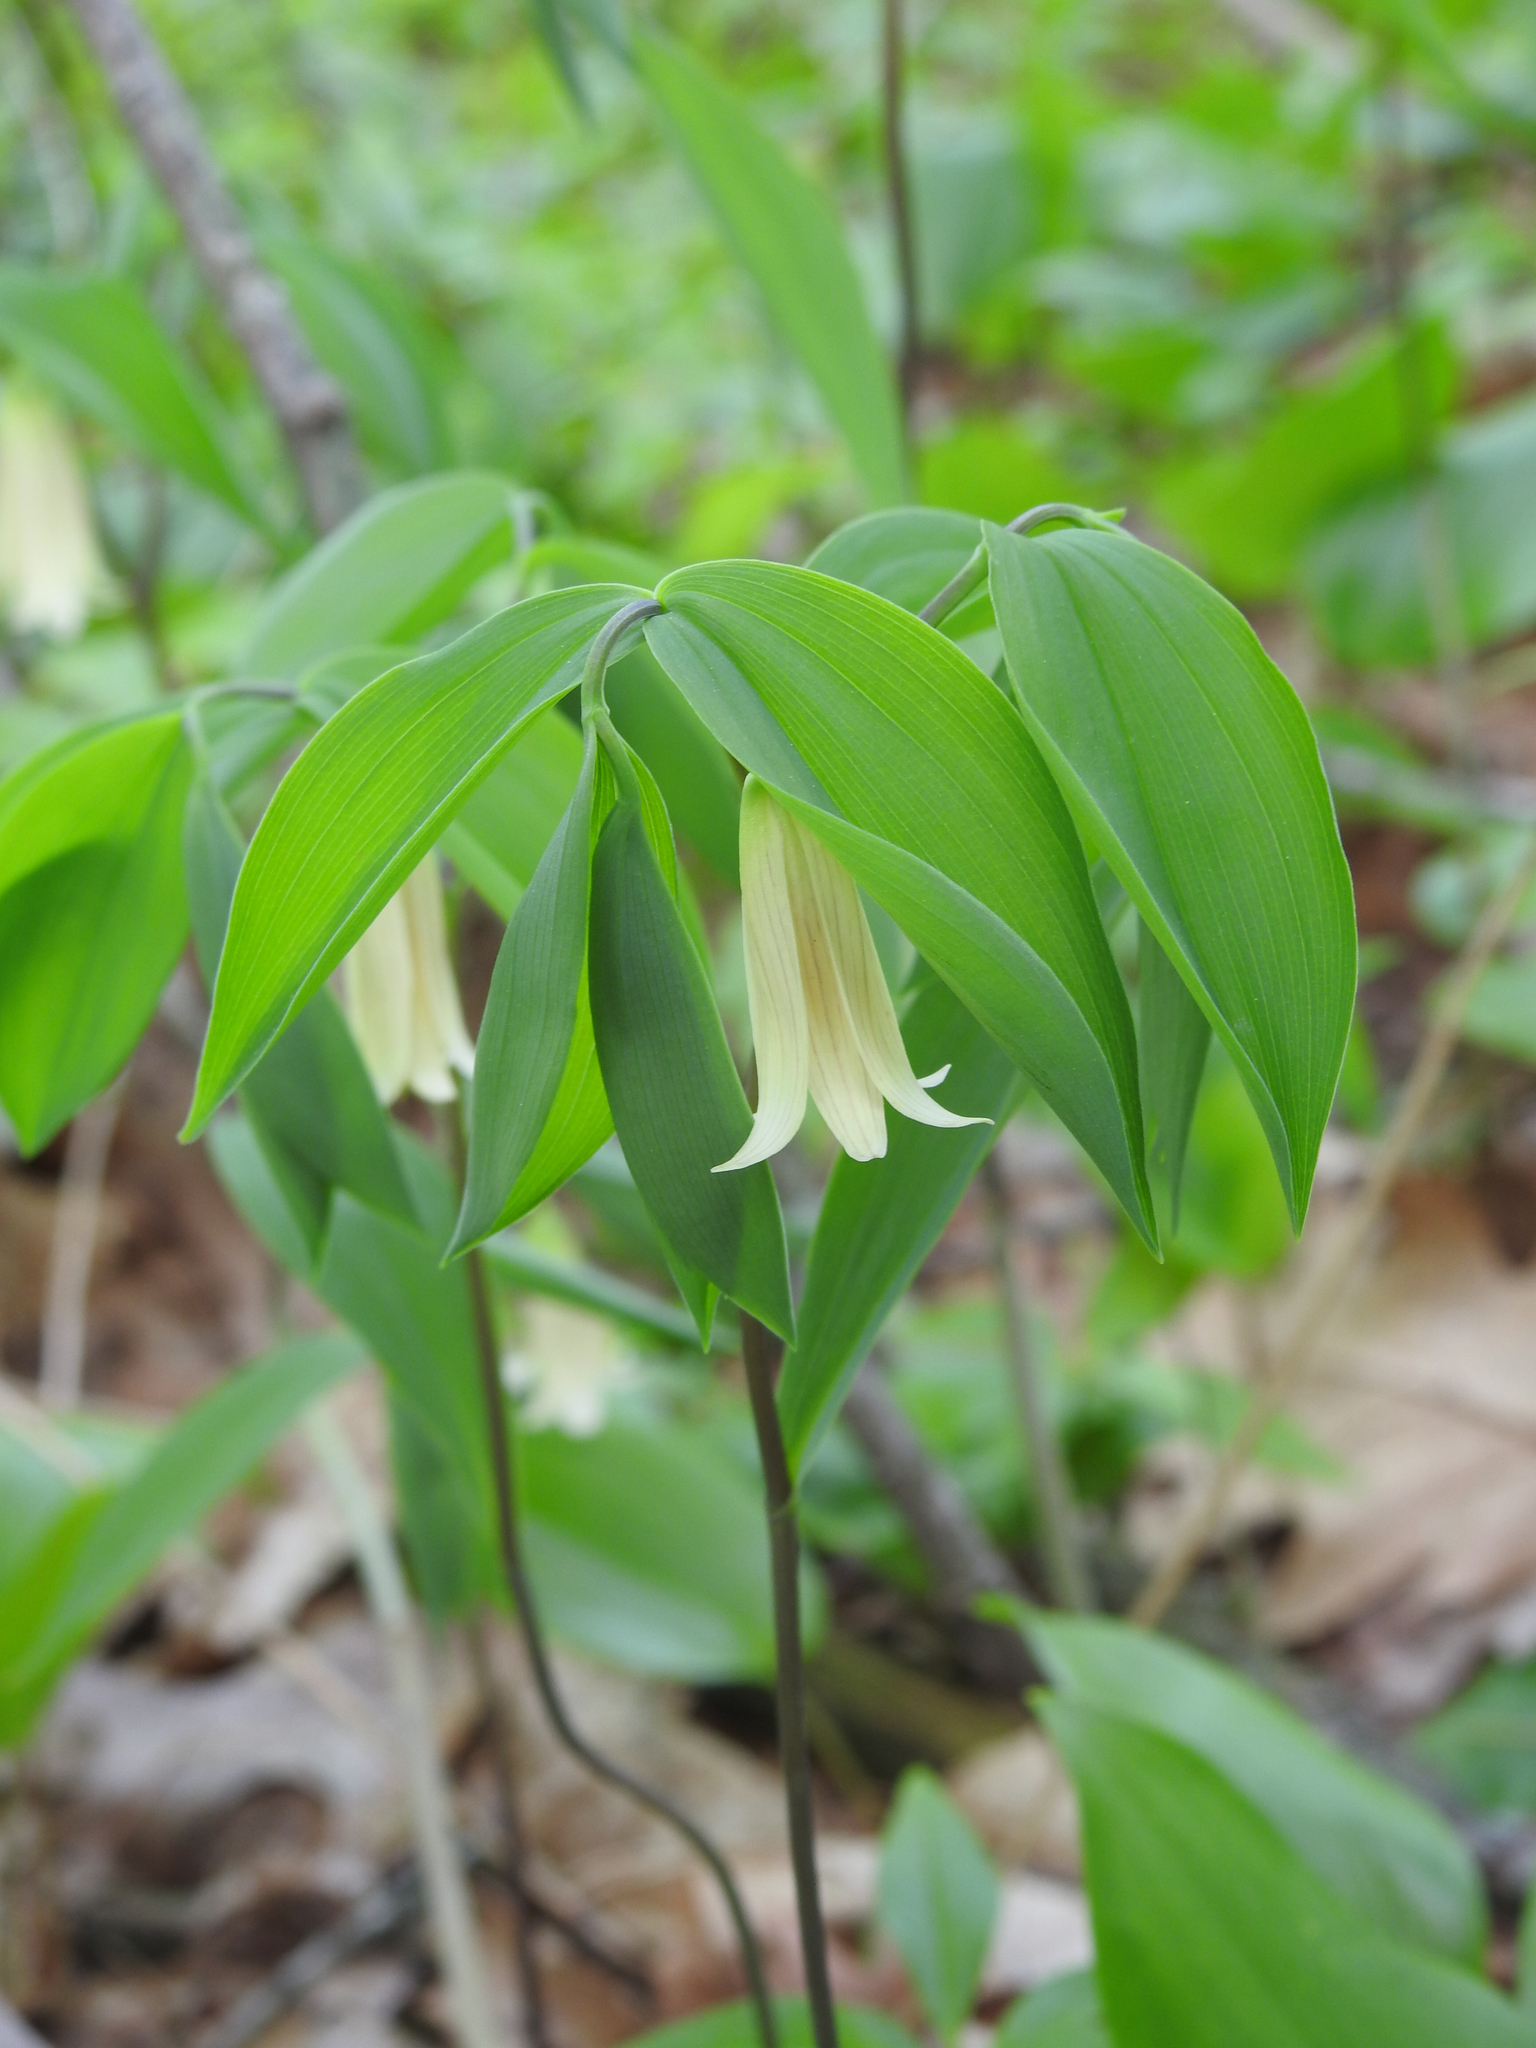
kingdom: Plantae
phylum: Tracheophyta
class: Liliopsida
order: Liliales
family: Colchicaceae
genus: Uvularia
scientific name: Uvularia sessilifolia
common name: Straw-lily
